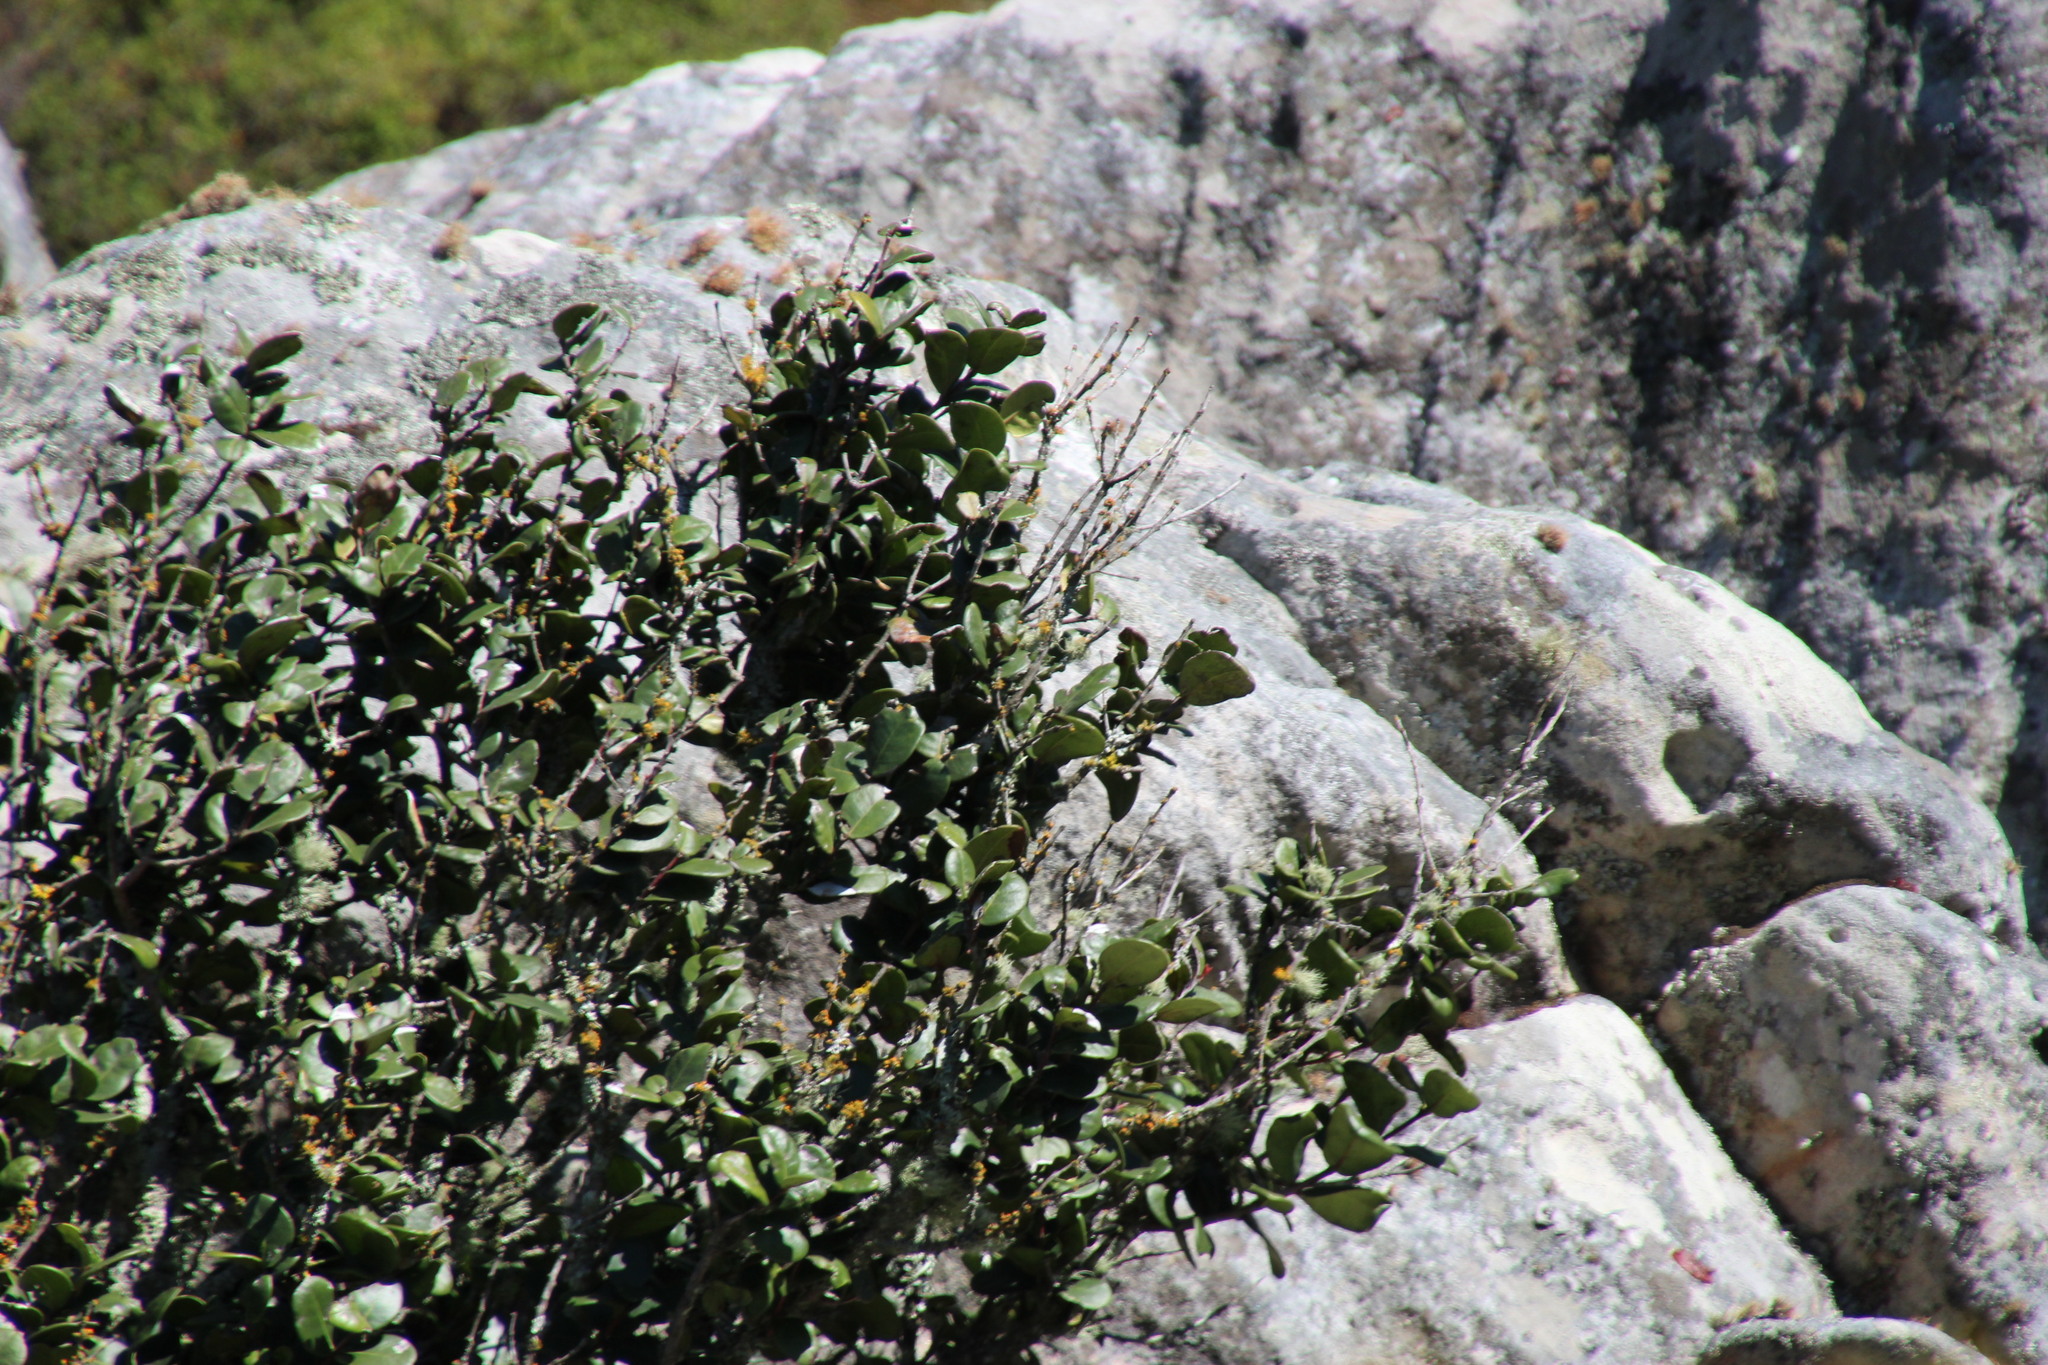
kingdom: Plantae
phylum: Tracheophyta
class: Magnoliopsida
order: Celastrales
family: Celastraceae
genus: Maurocenia
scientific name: Maurocenia frangula
